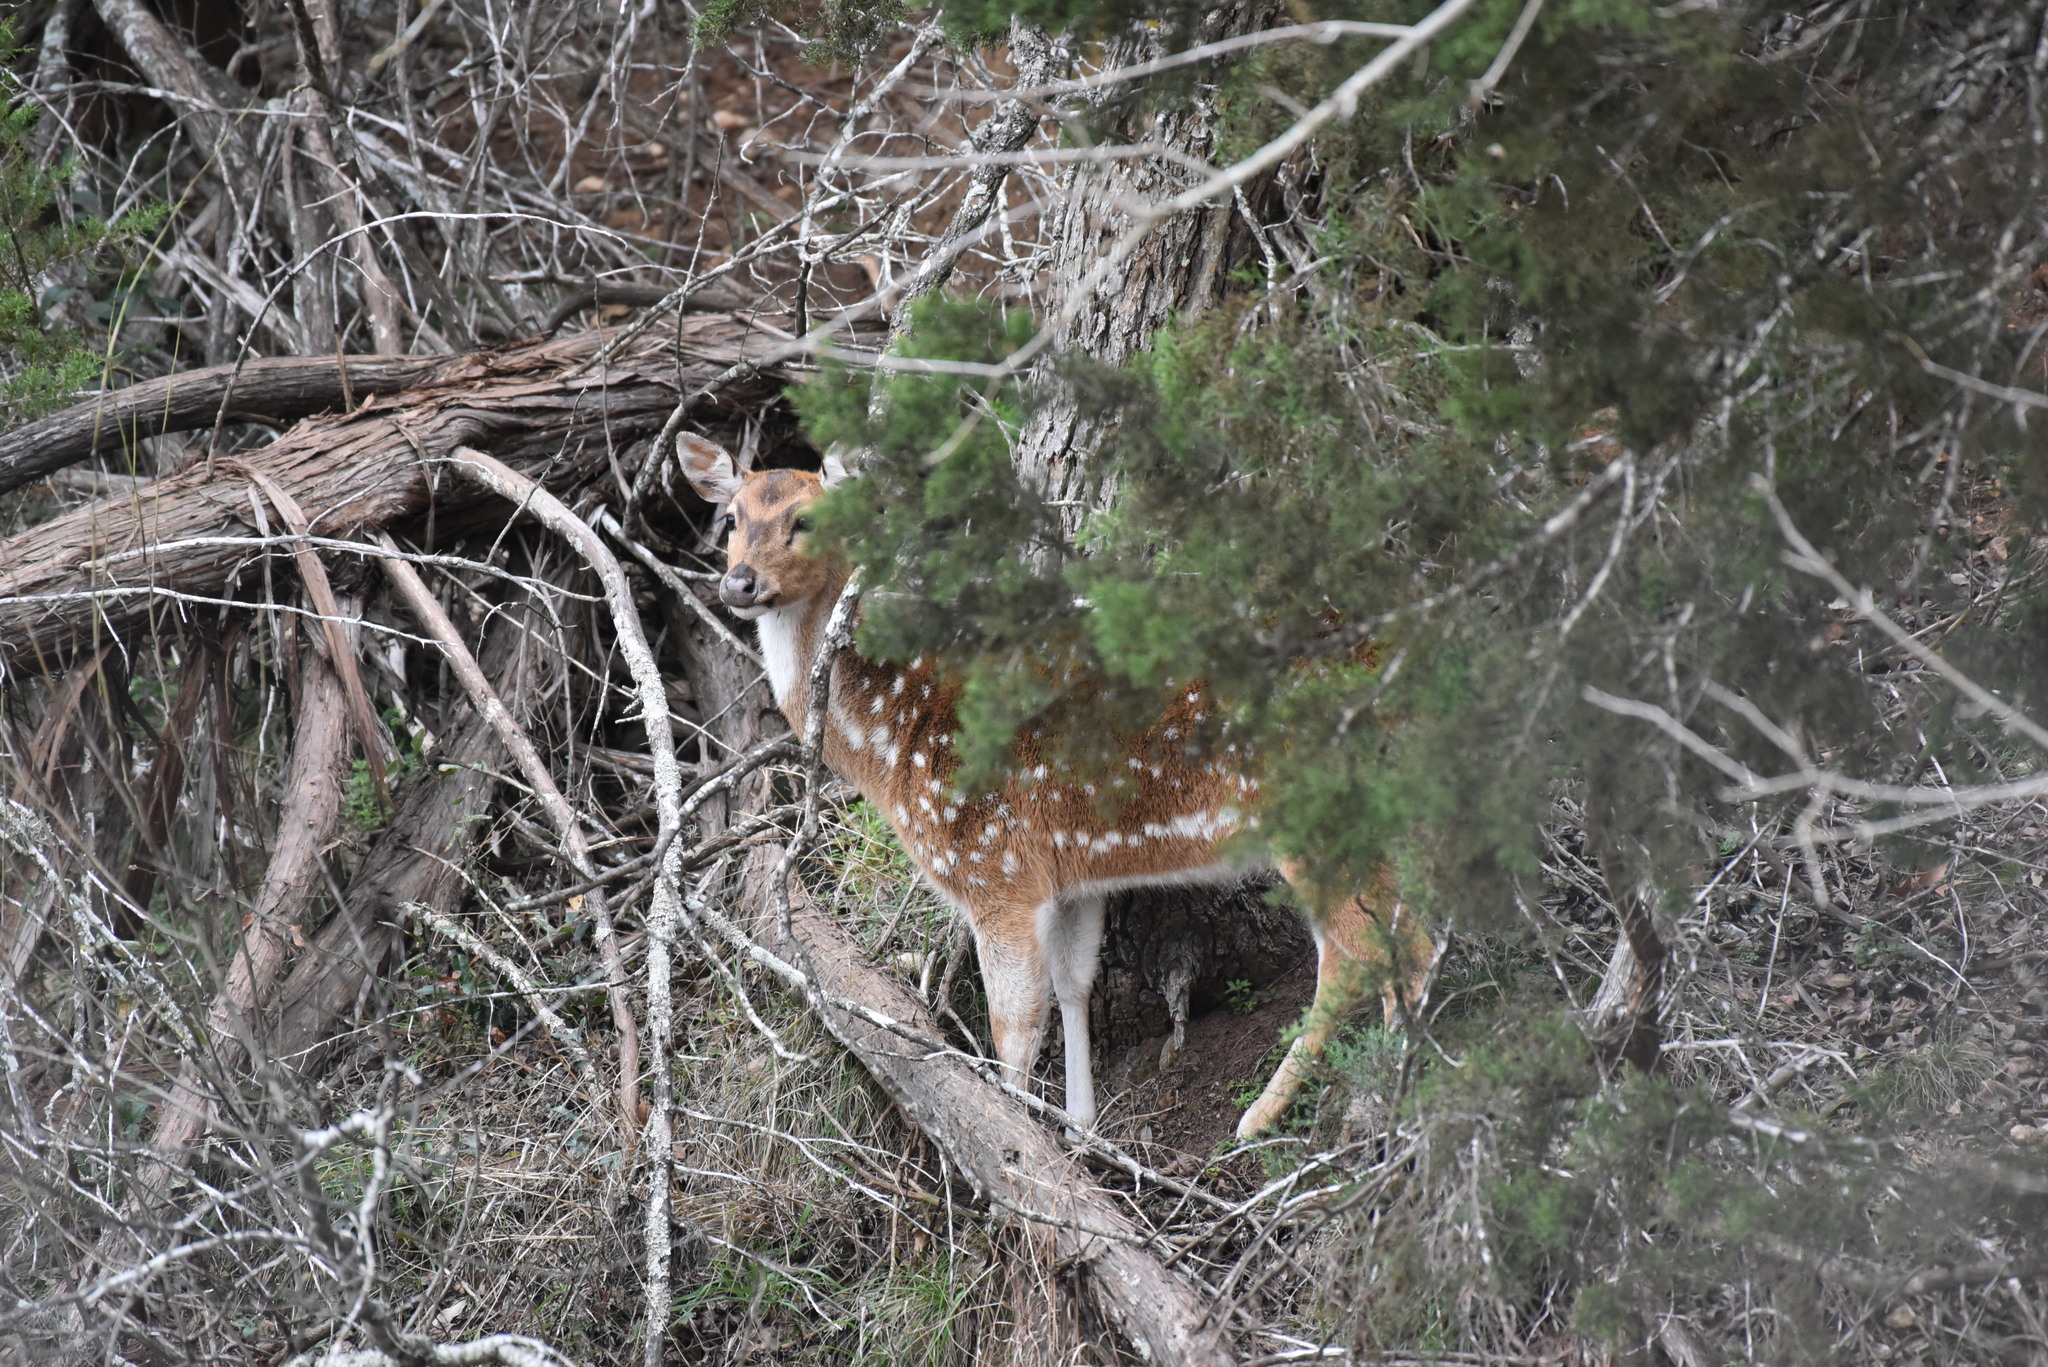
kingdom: Animalia
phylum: Chordata
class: Mammalia
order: Artiodactyla
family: Cervidae
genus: Axis
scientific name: Axis axis
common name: Chital
